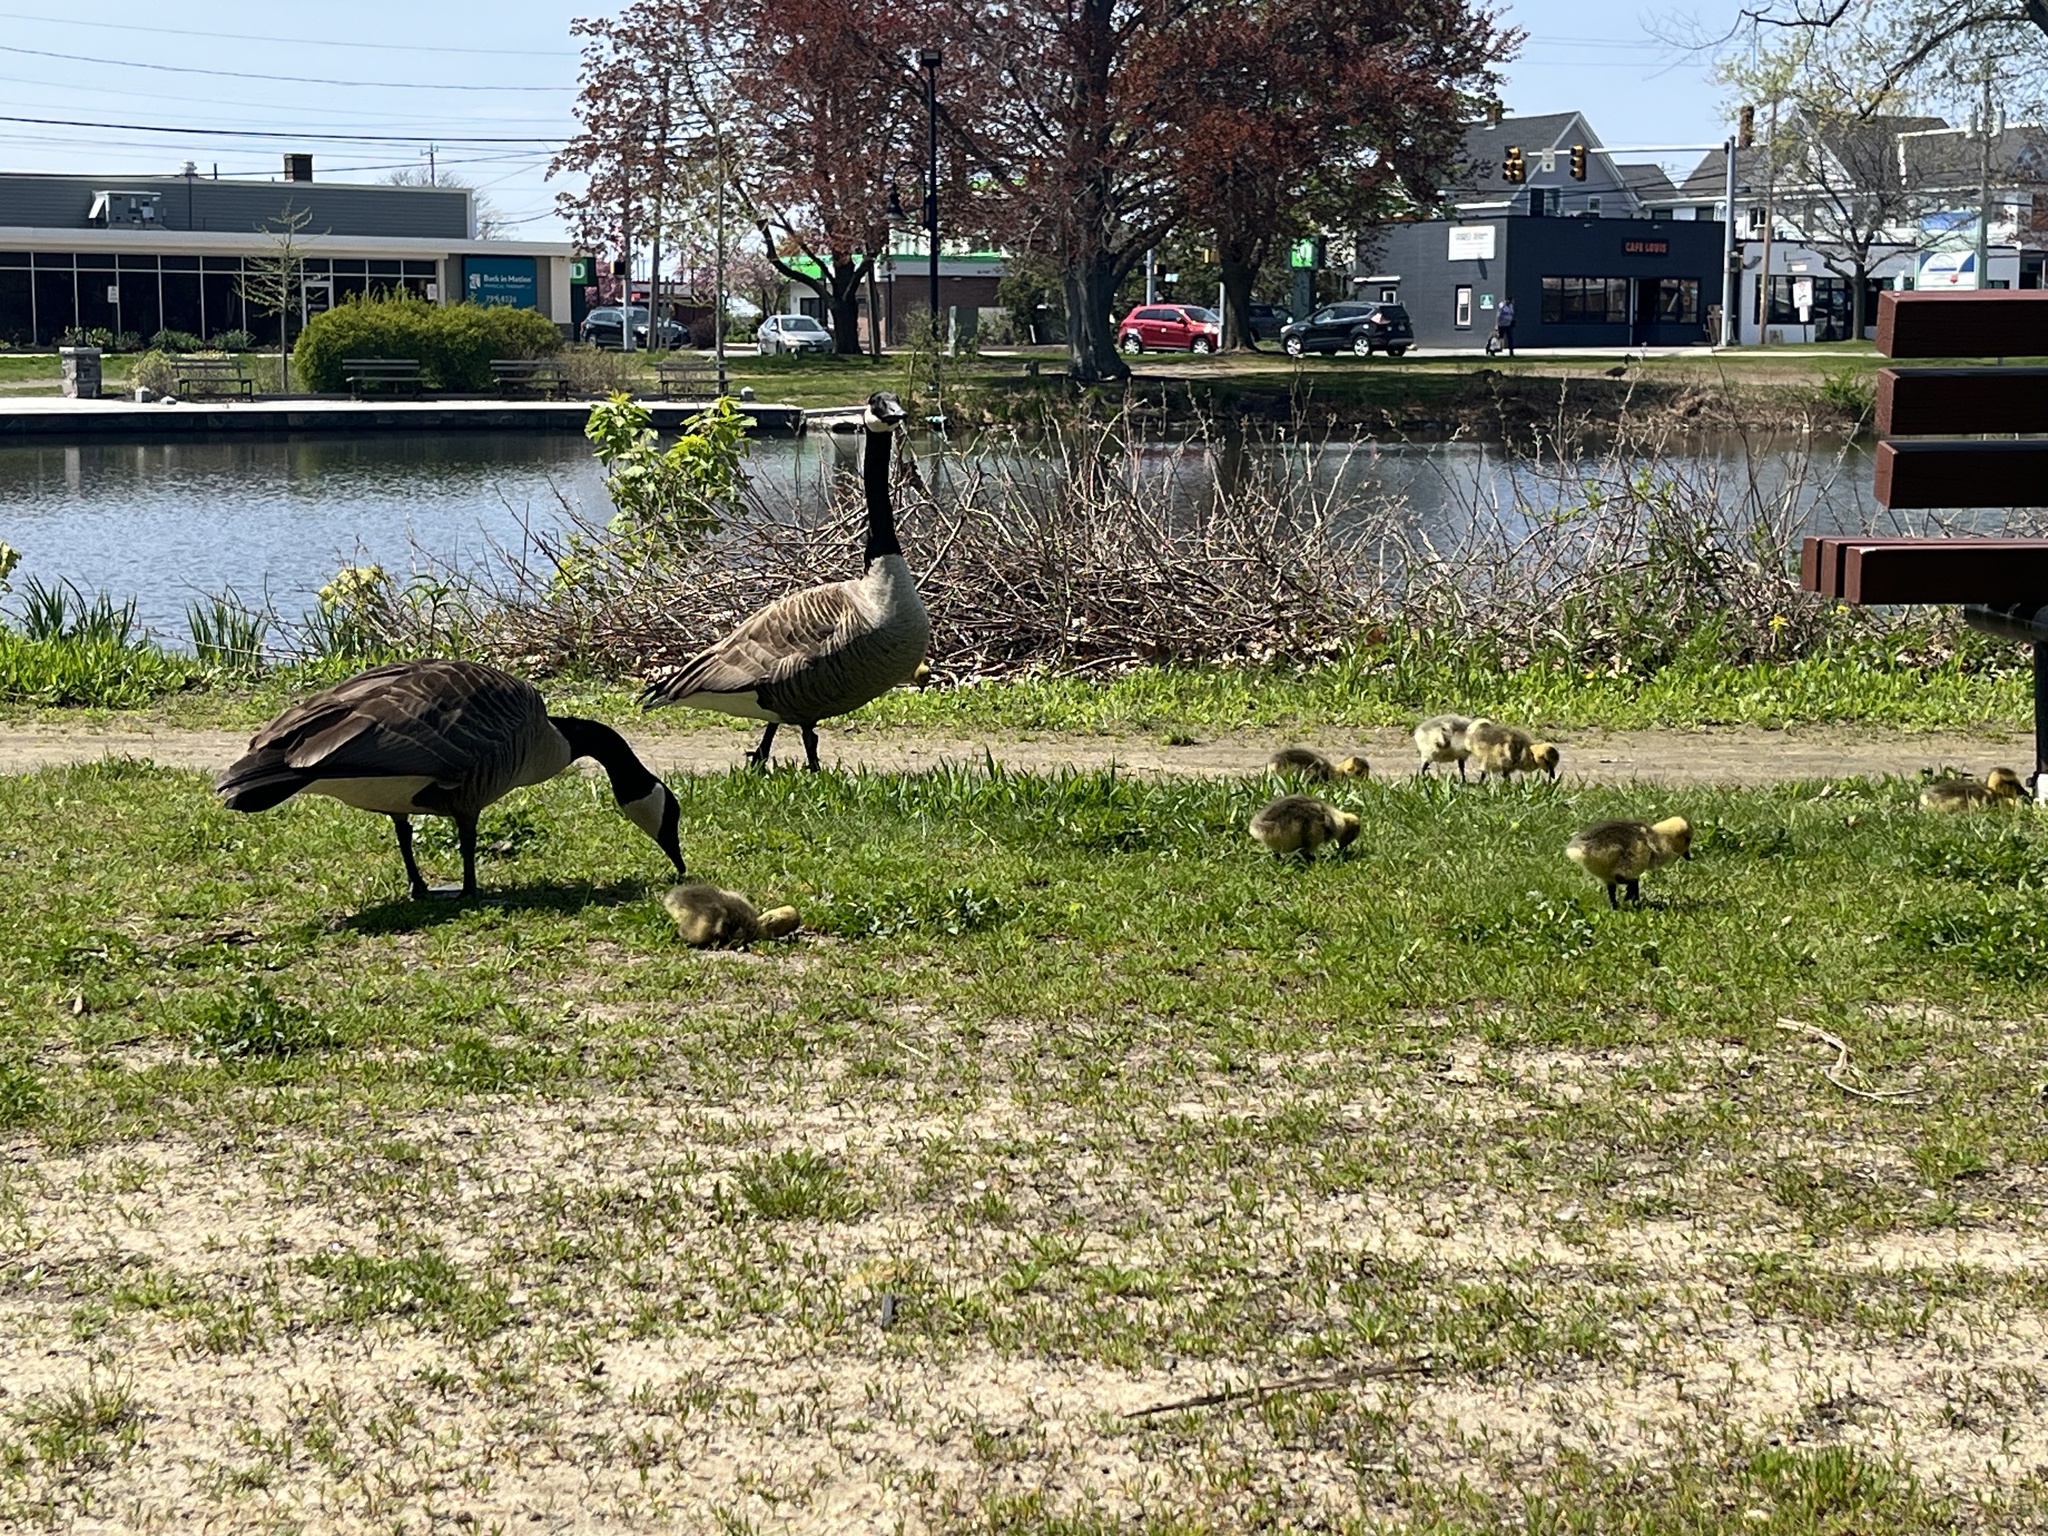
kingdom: Animalia
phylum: Chordata
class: Aves
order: Anseriformes
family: Anatidae
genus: Branta
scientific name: Branta canadensis
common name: Canada goose
